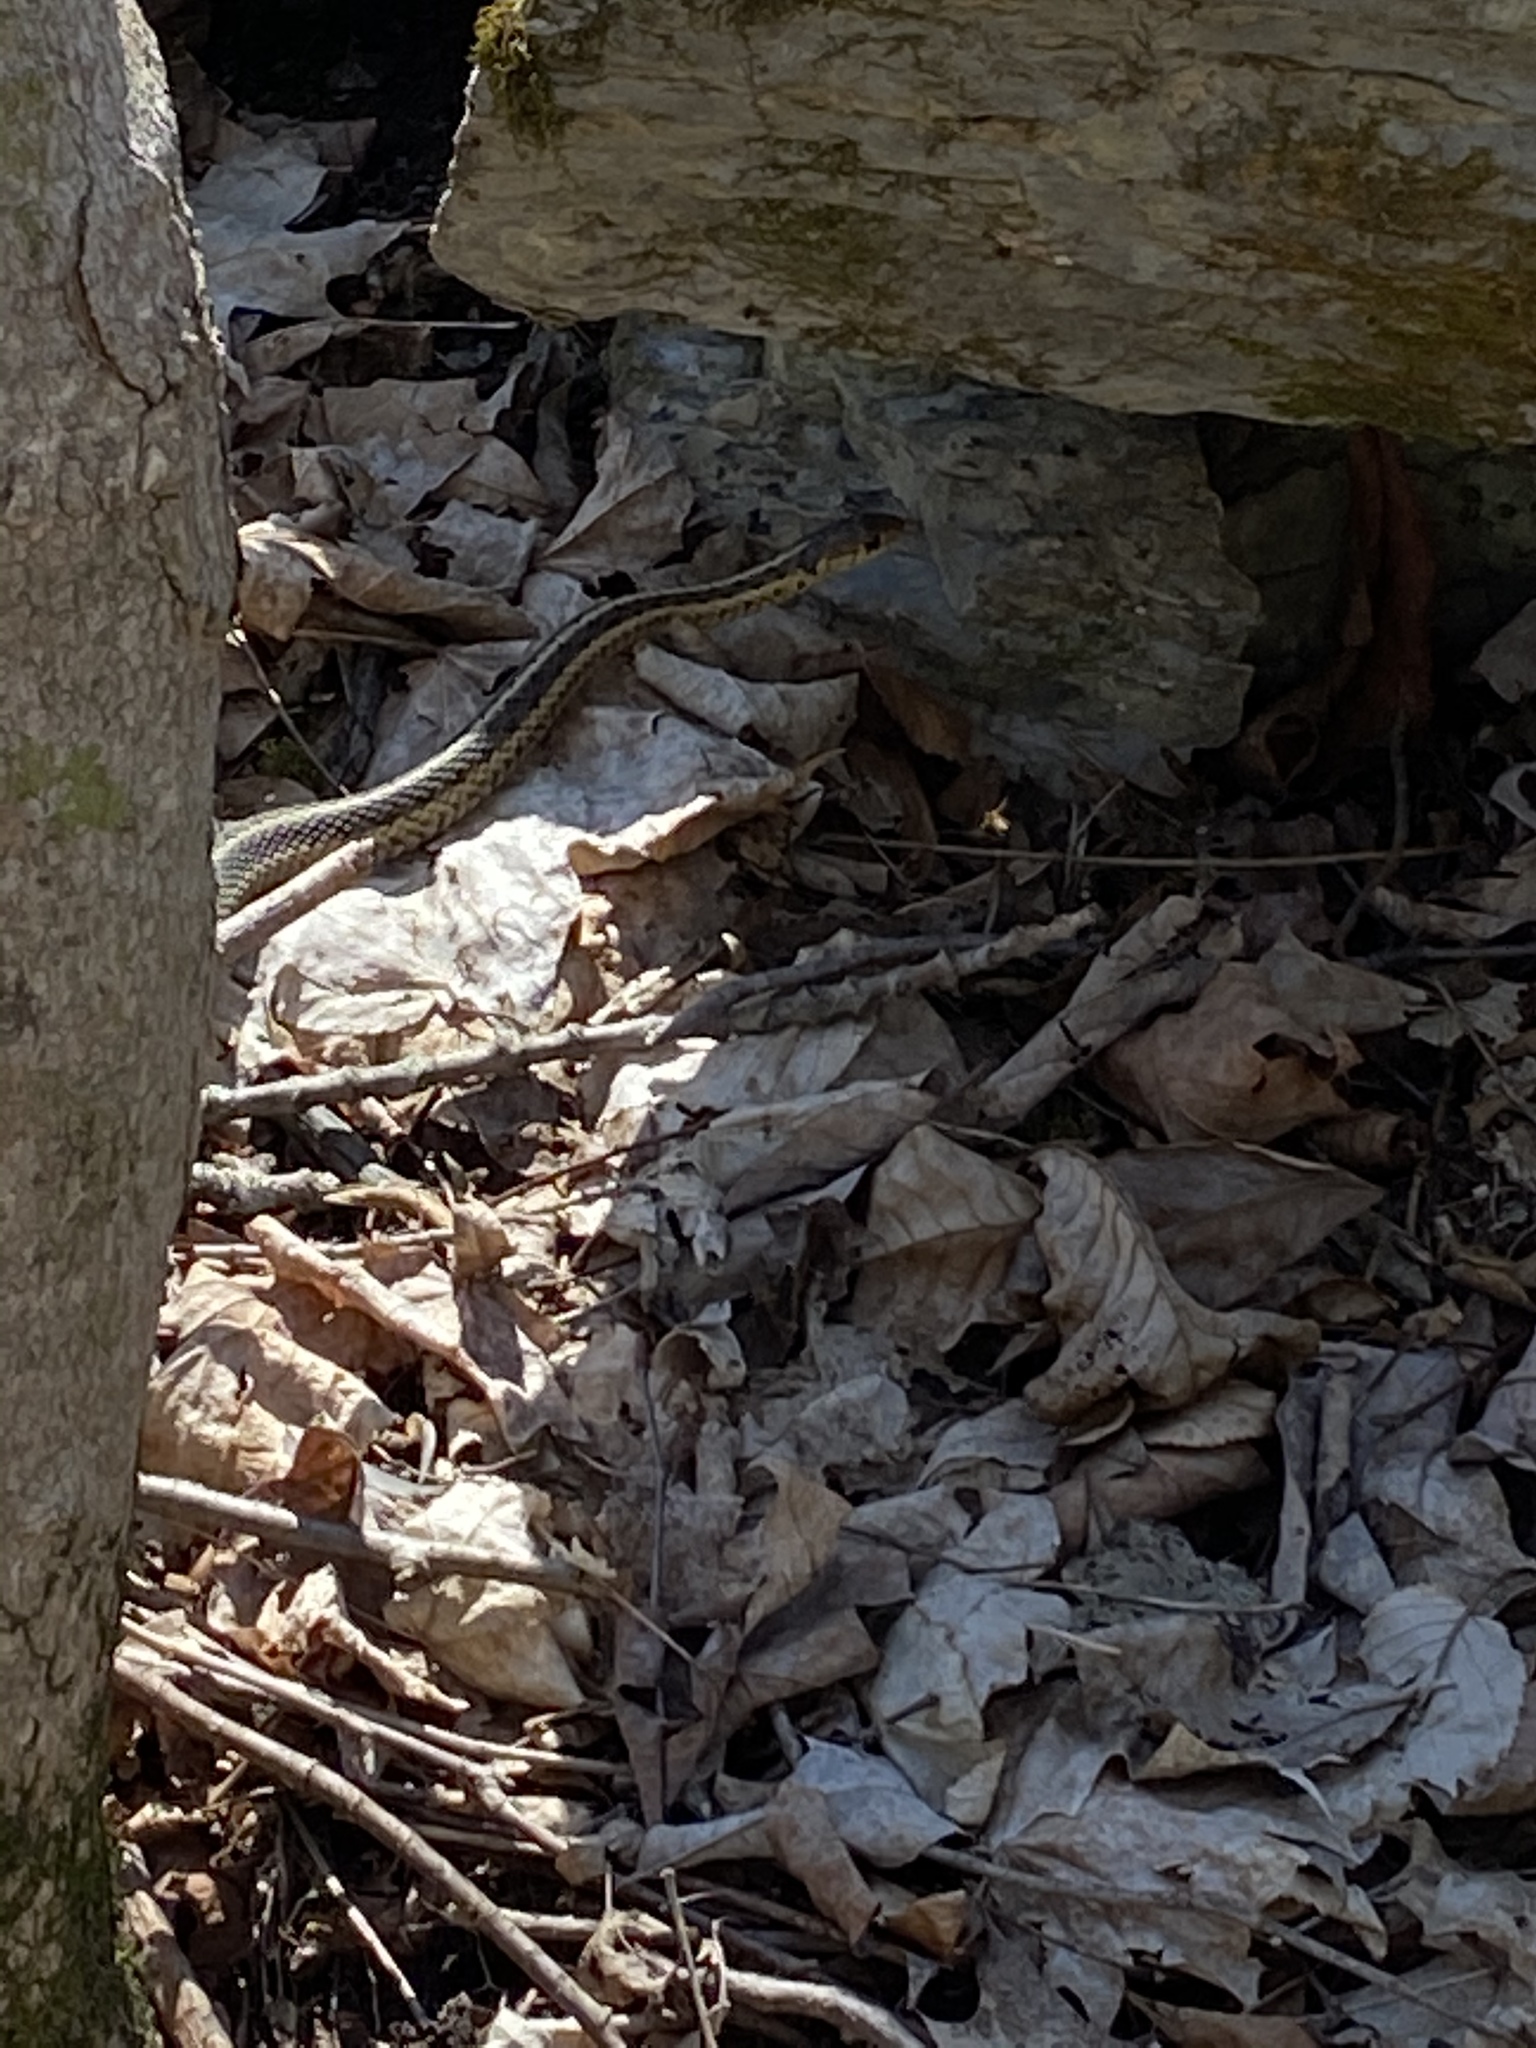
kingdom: Animalia
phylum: Chordata
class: Squamata
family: Colubridae
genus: Thamnophis
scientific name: Thamnophis sirtalis
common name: Common garter snake
